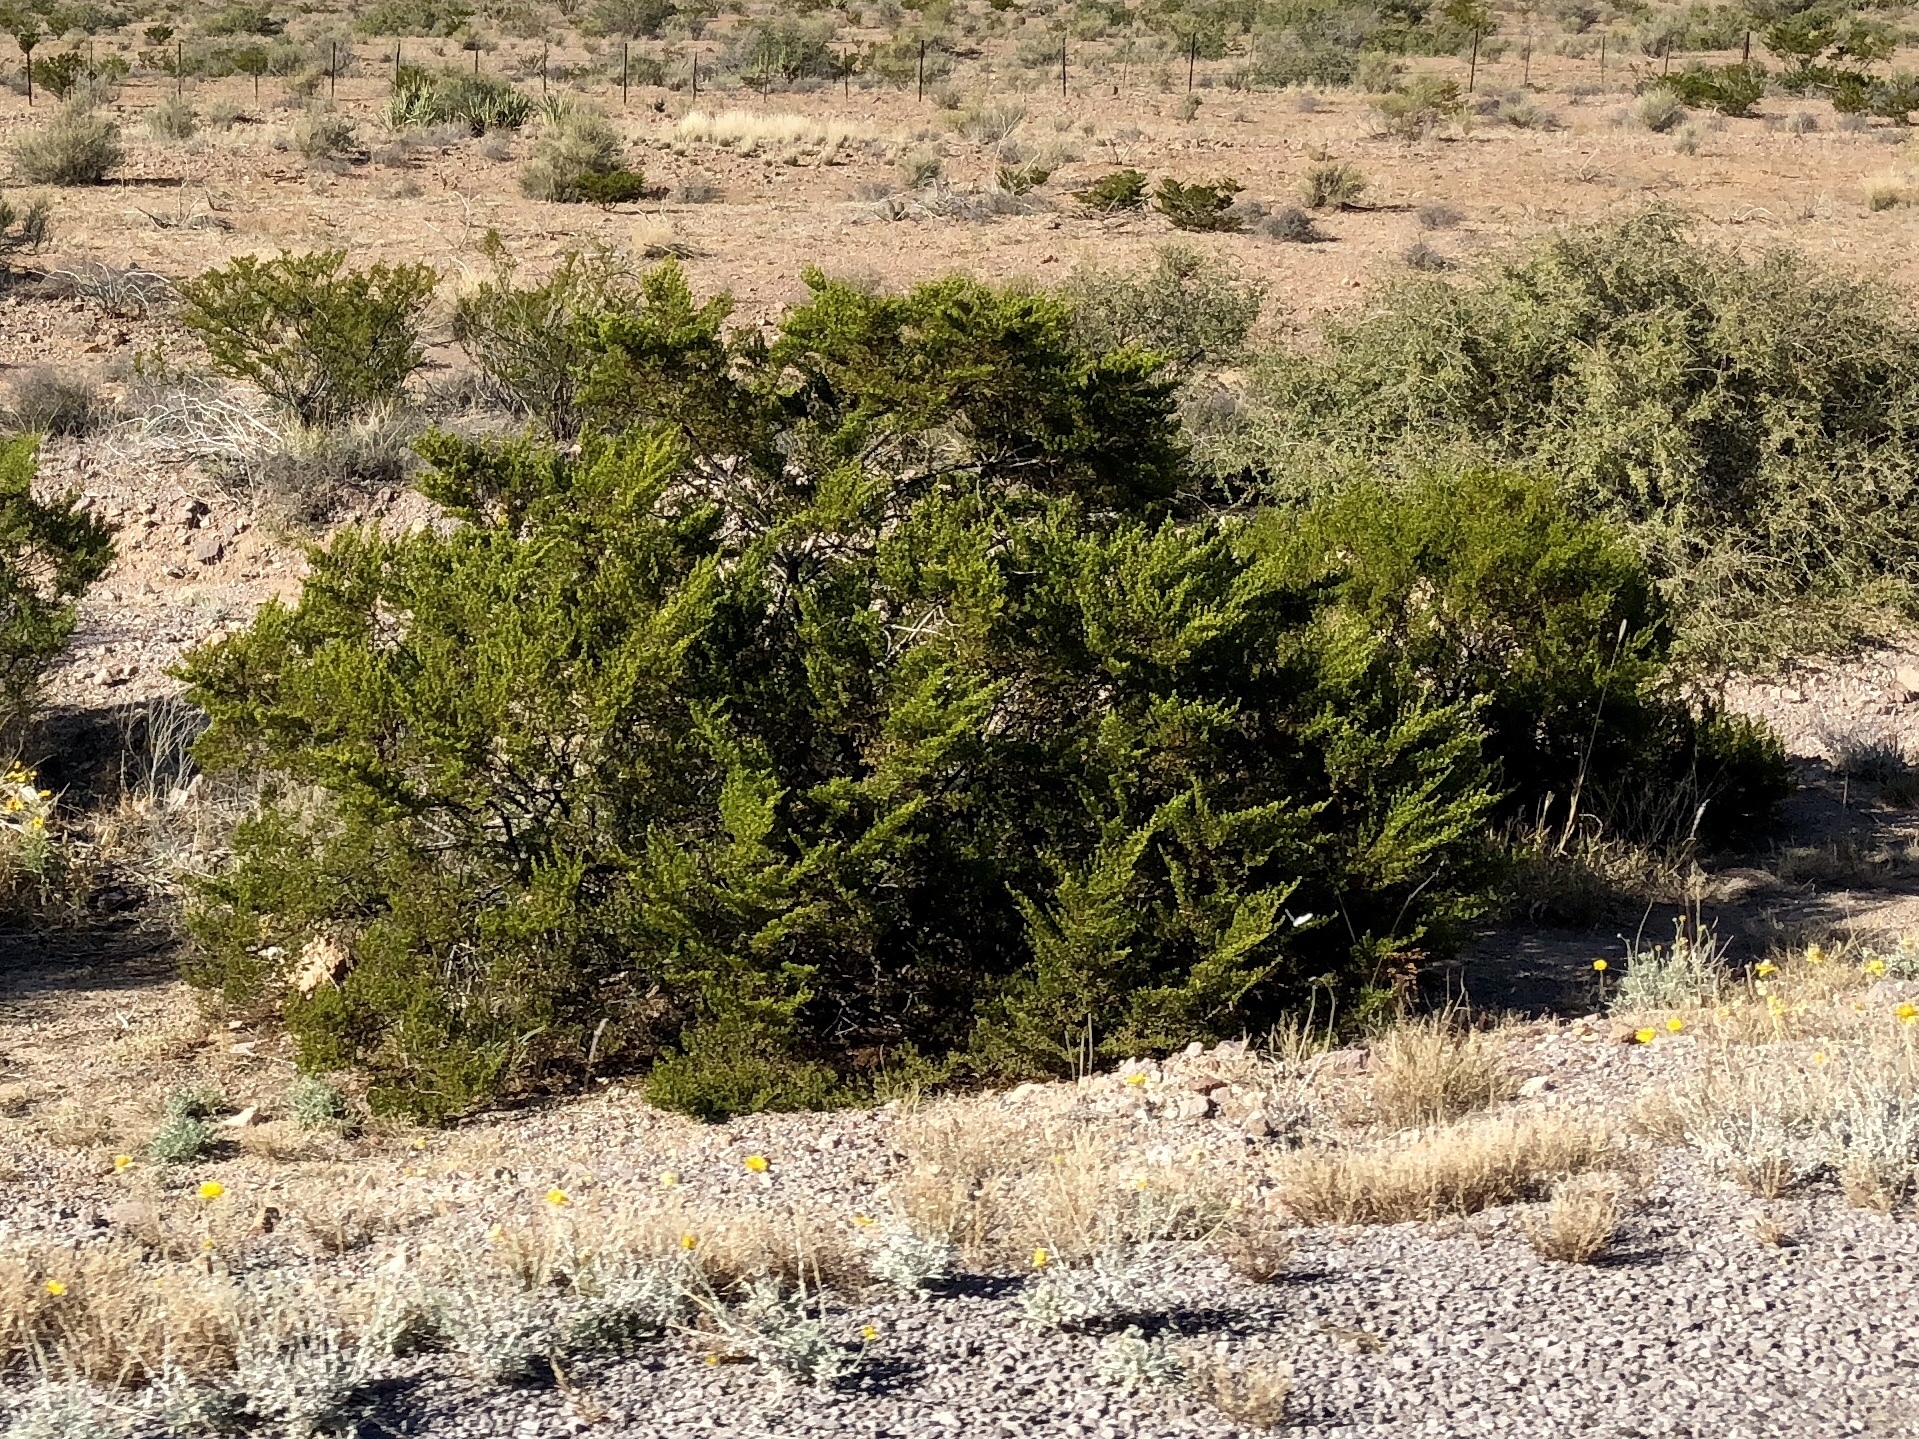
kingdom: Plantae
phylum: Tracheophyta
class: Magnoliopsida
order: Zygophyllales
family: Zygophyllaceae
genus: Larrea
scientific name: Larrea tridentata
